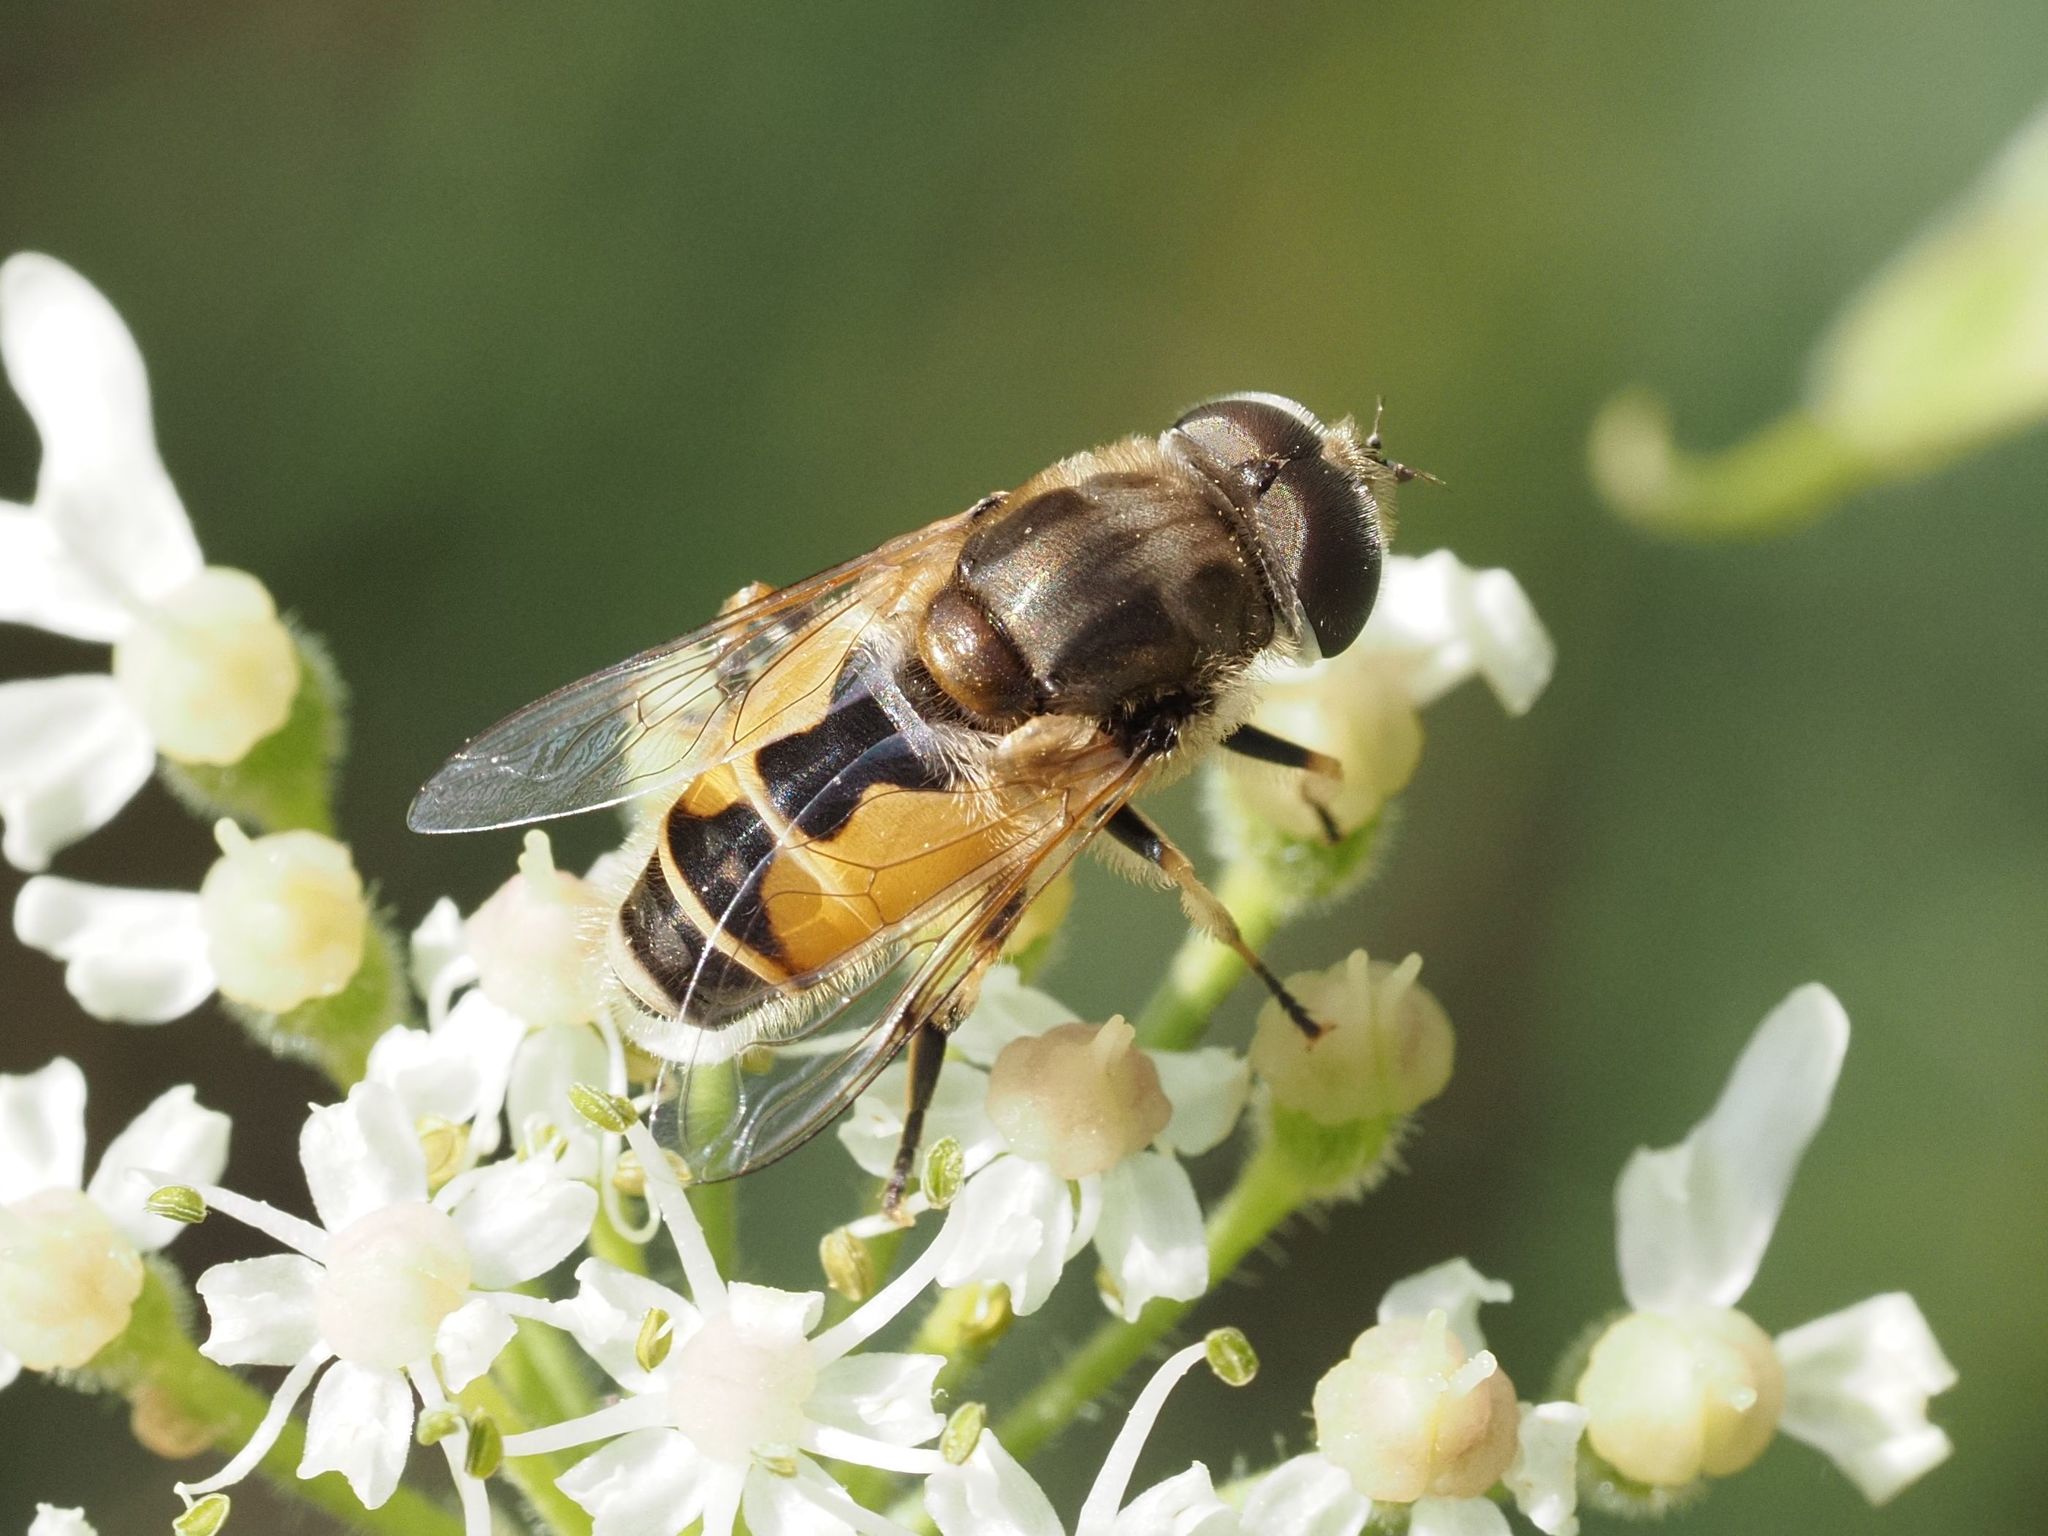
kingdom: Animalia
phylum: Arthropoda
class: Insecta
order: Diptera
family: Syrphidae
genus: Eristalis
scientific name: Eristalis arbustorum
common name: Hover fly
